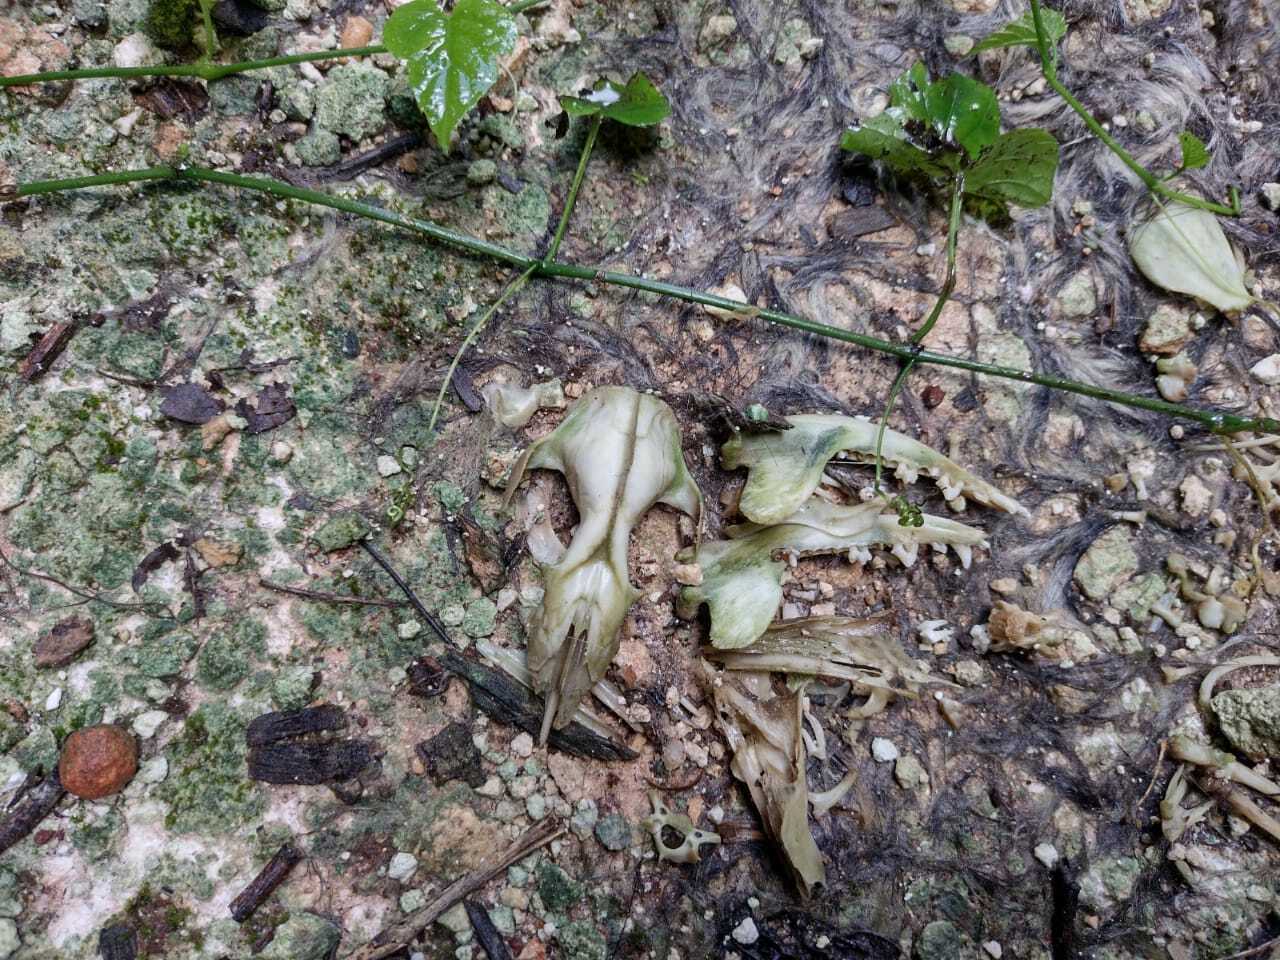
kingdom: Animalia
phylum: Chordata
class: Mammalia
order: Didelphimorphia
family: Didelphidae
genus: Didelphis
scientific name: Didelphis
